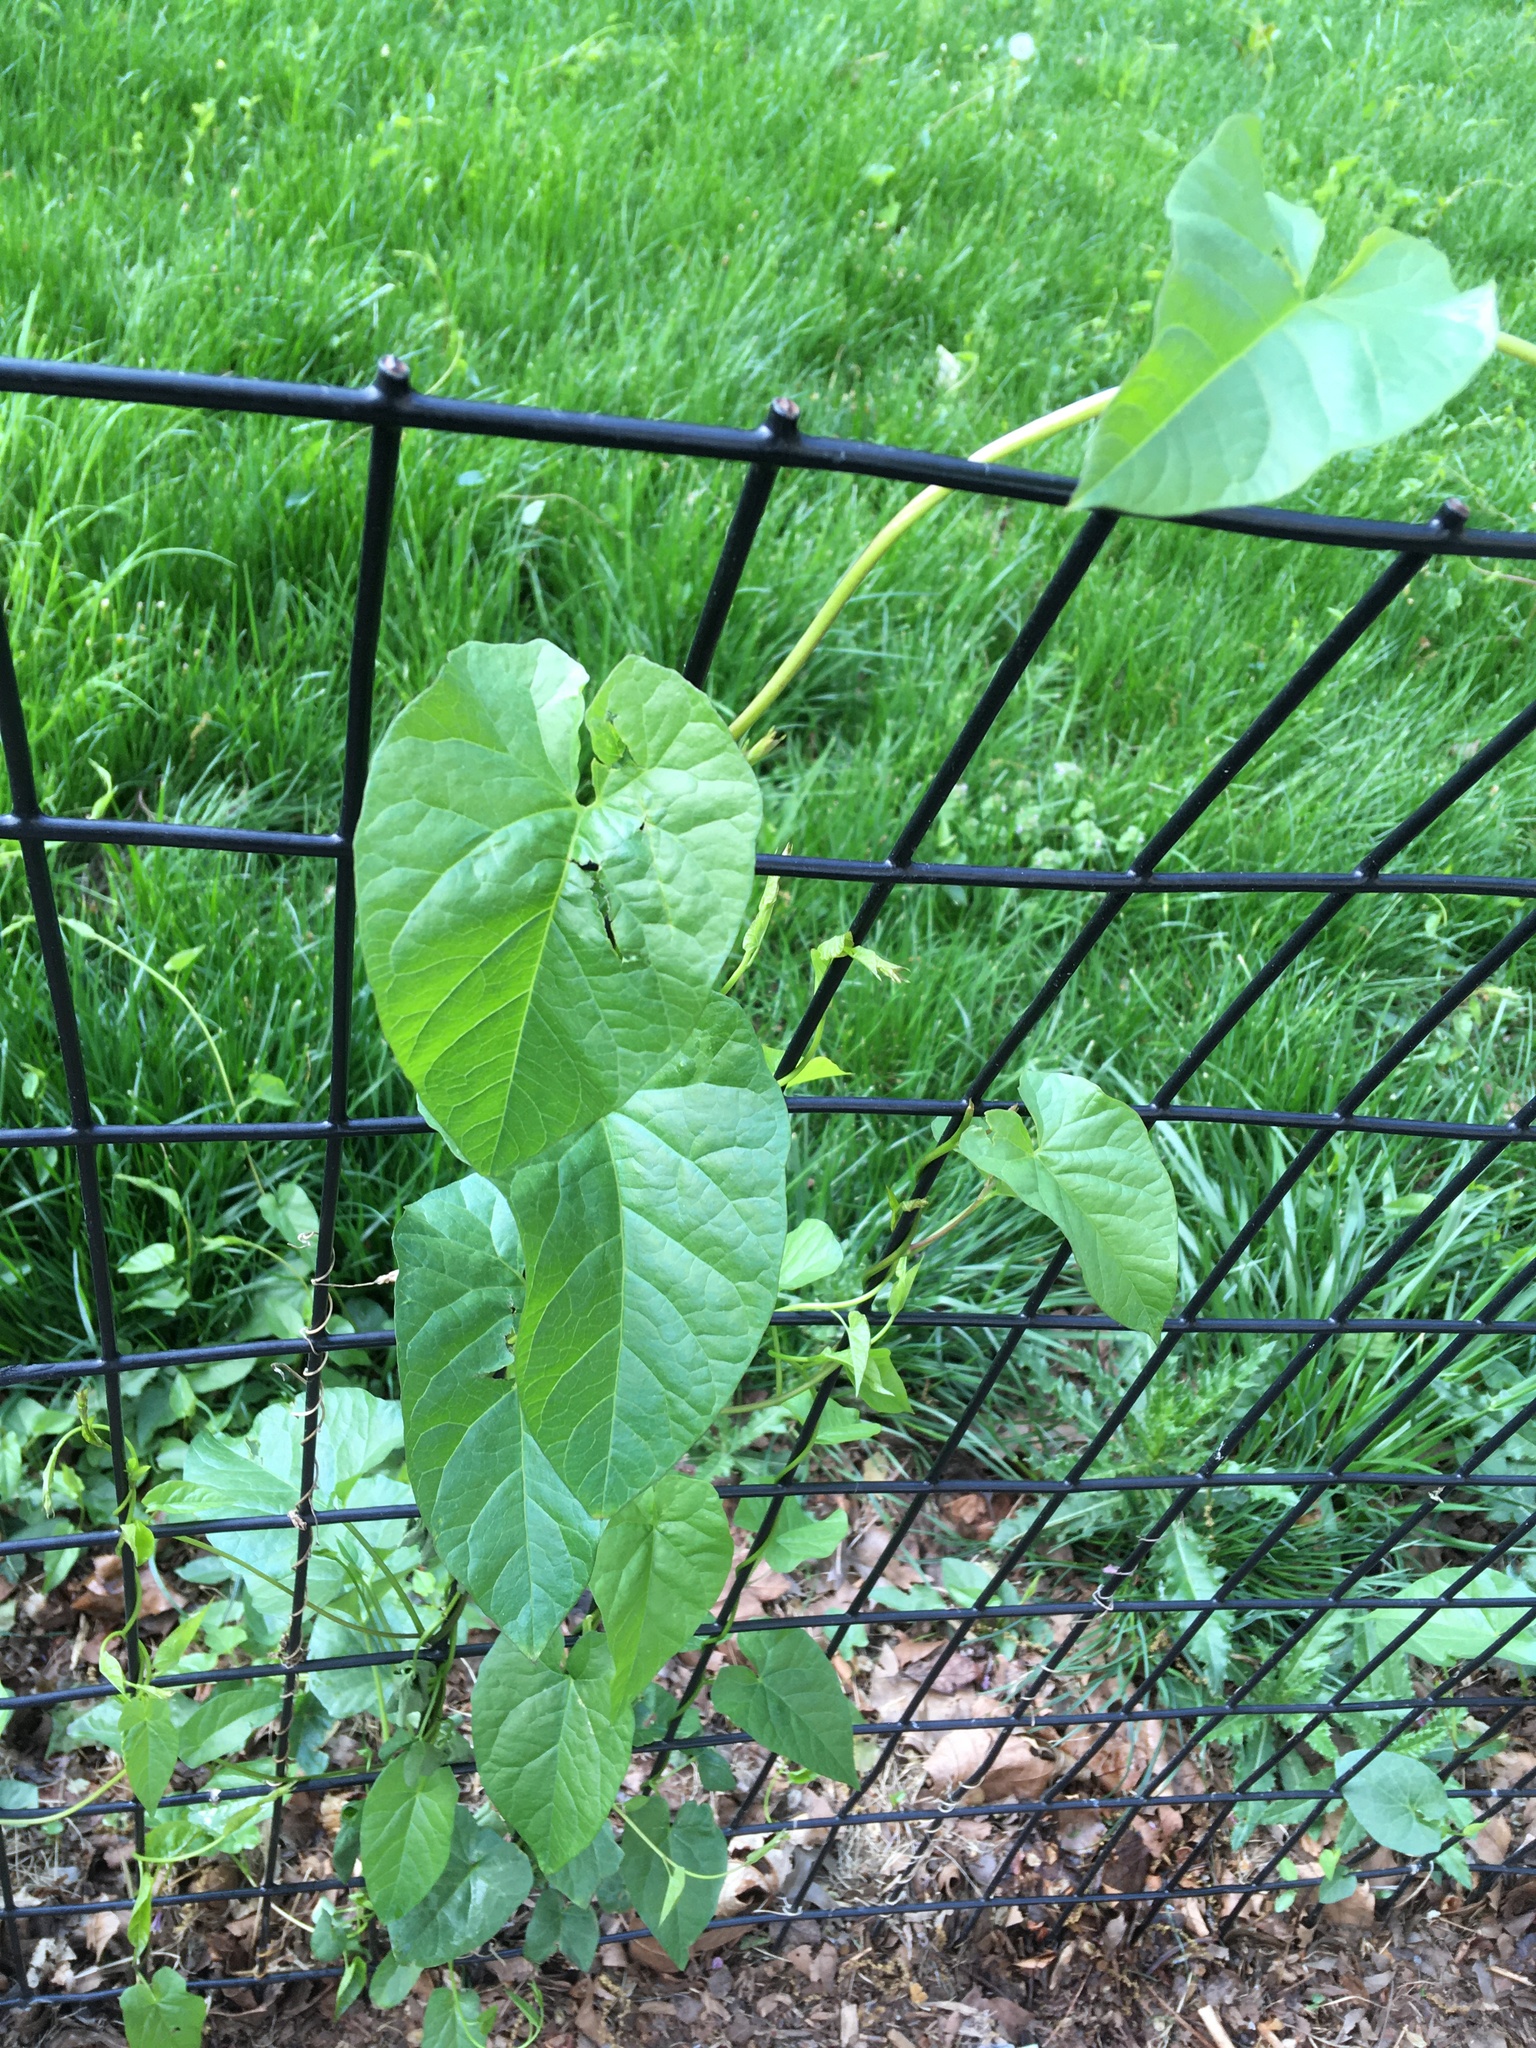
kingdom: Plantae
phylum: Tracheophyta
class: Magnoliopsida
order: Solanales
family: Convolvulaceae
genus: Calystegia
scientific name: Calystegia sepium
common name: Hedge bindweed
